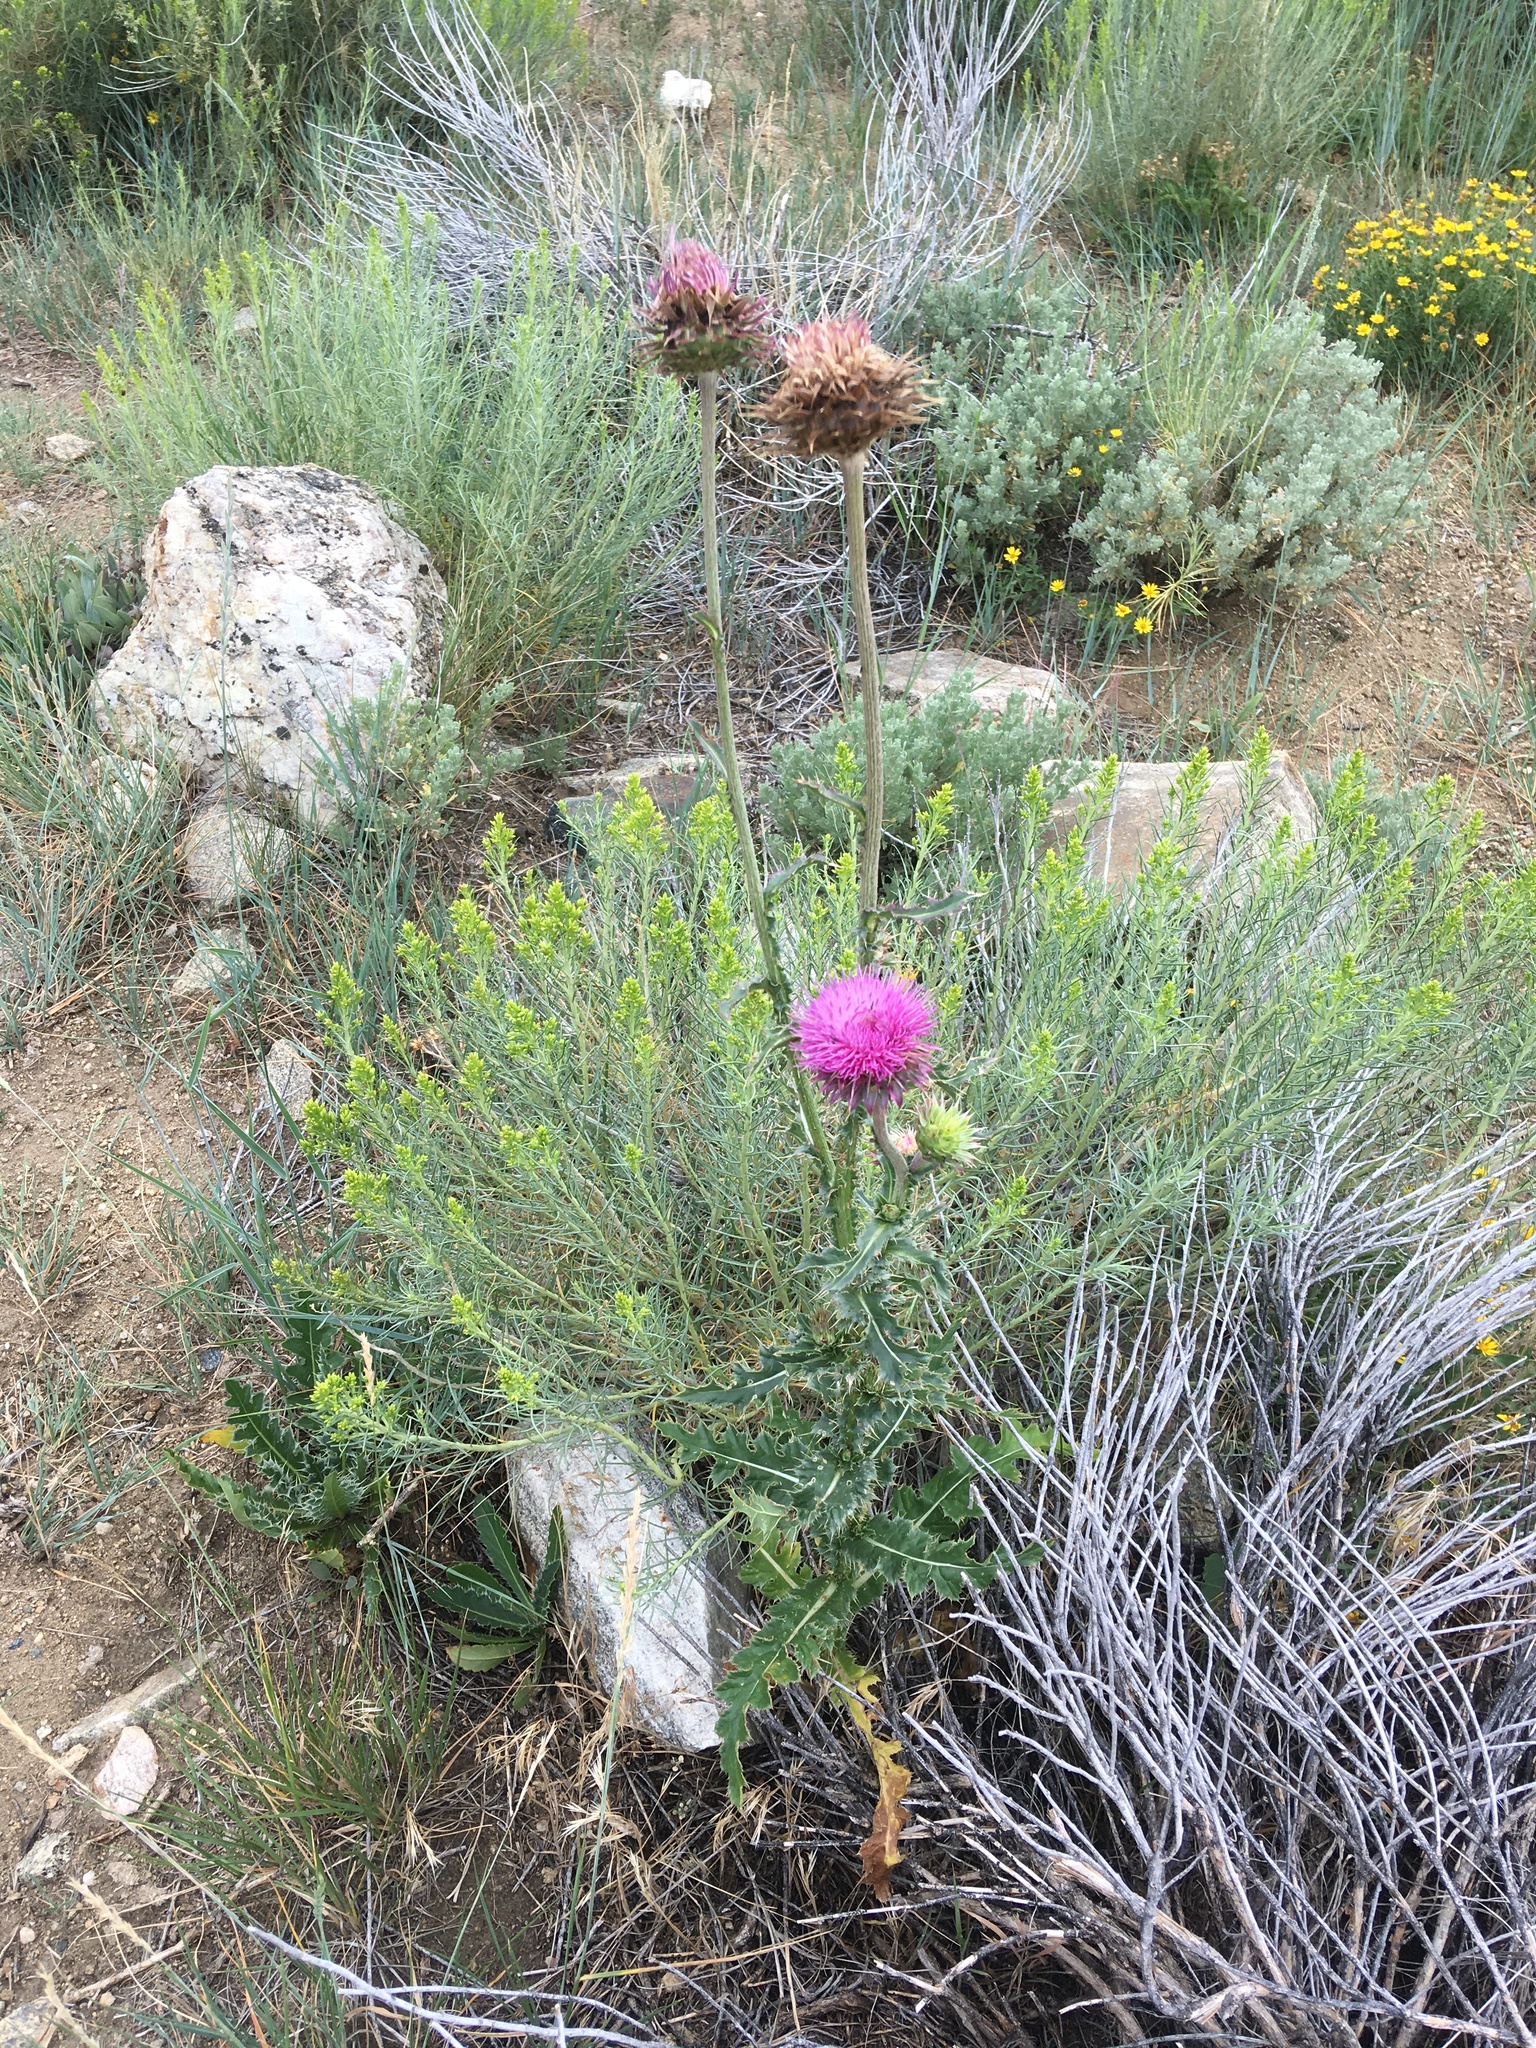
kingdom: Plantae
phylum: Tracheophyta
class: Magnoliopsida
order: Asterales
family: Asteraceae
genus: Carduus
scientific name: Carduus nutans
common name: Musk thistle
